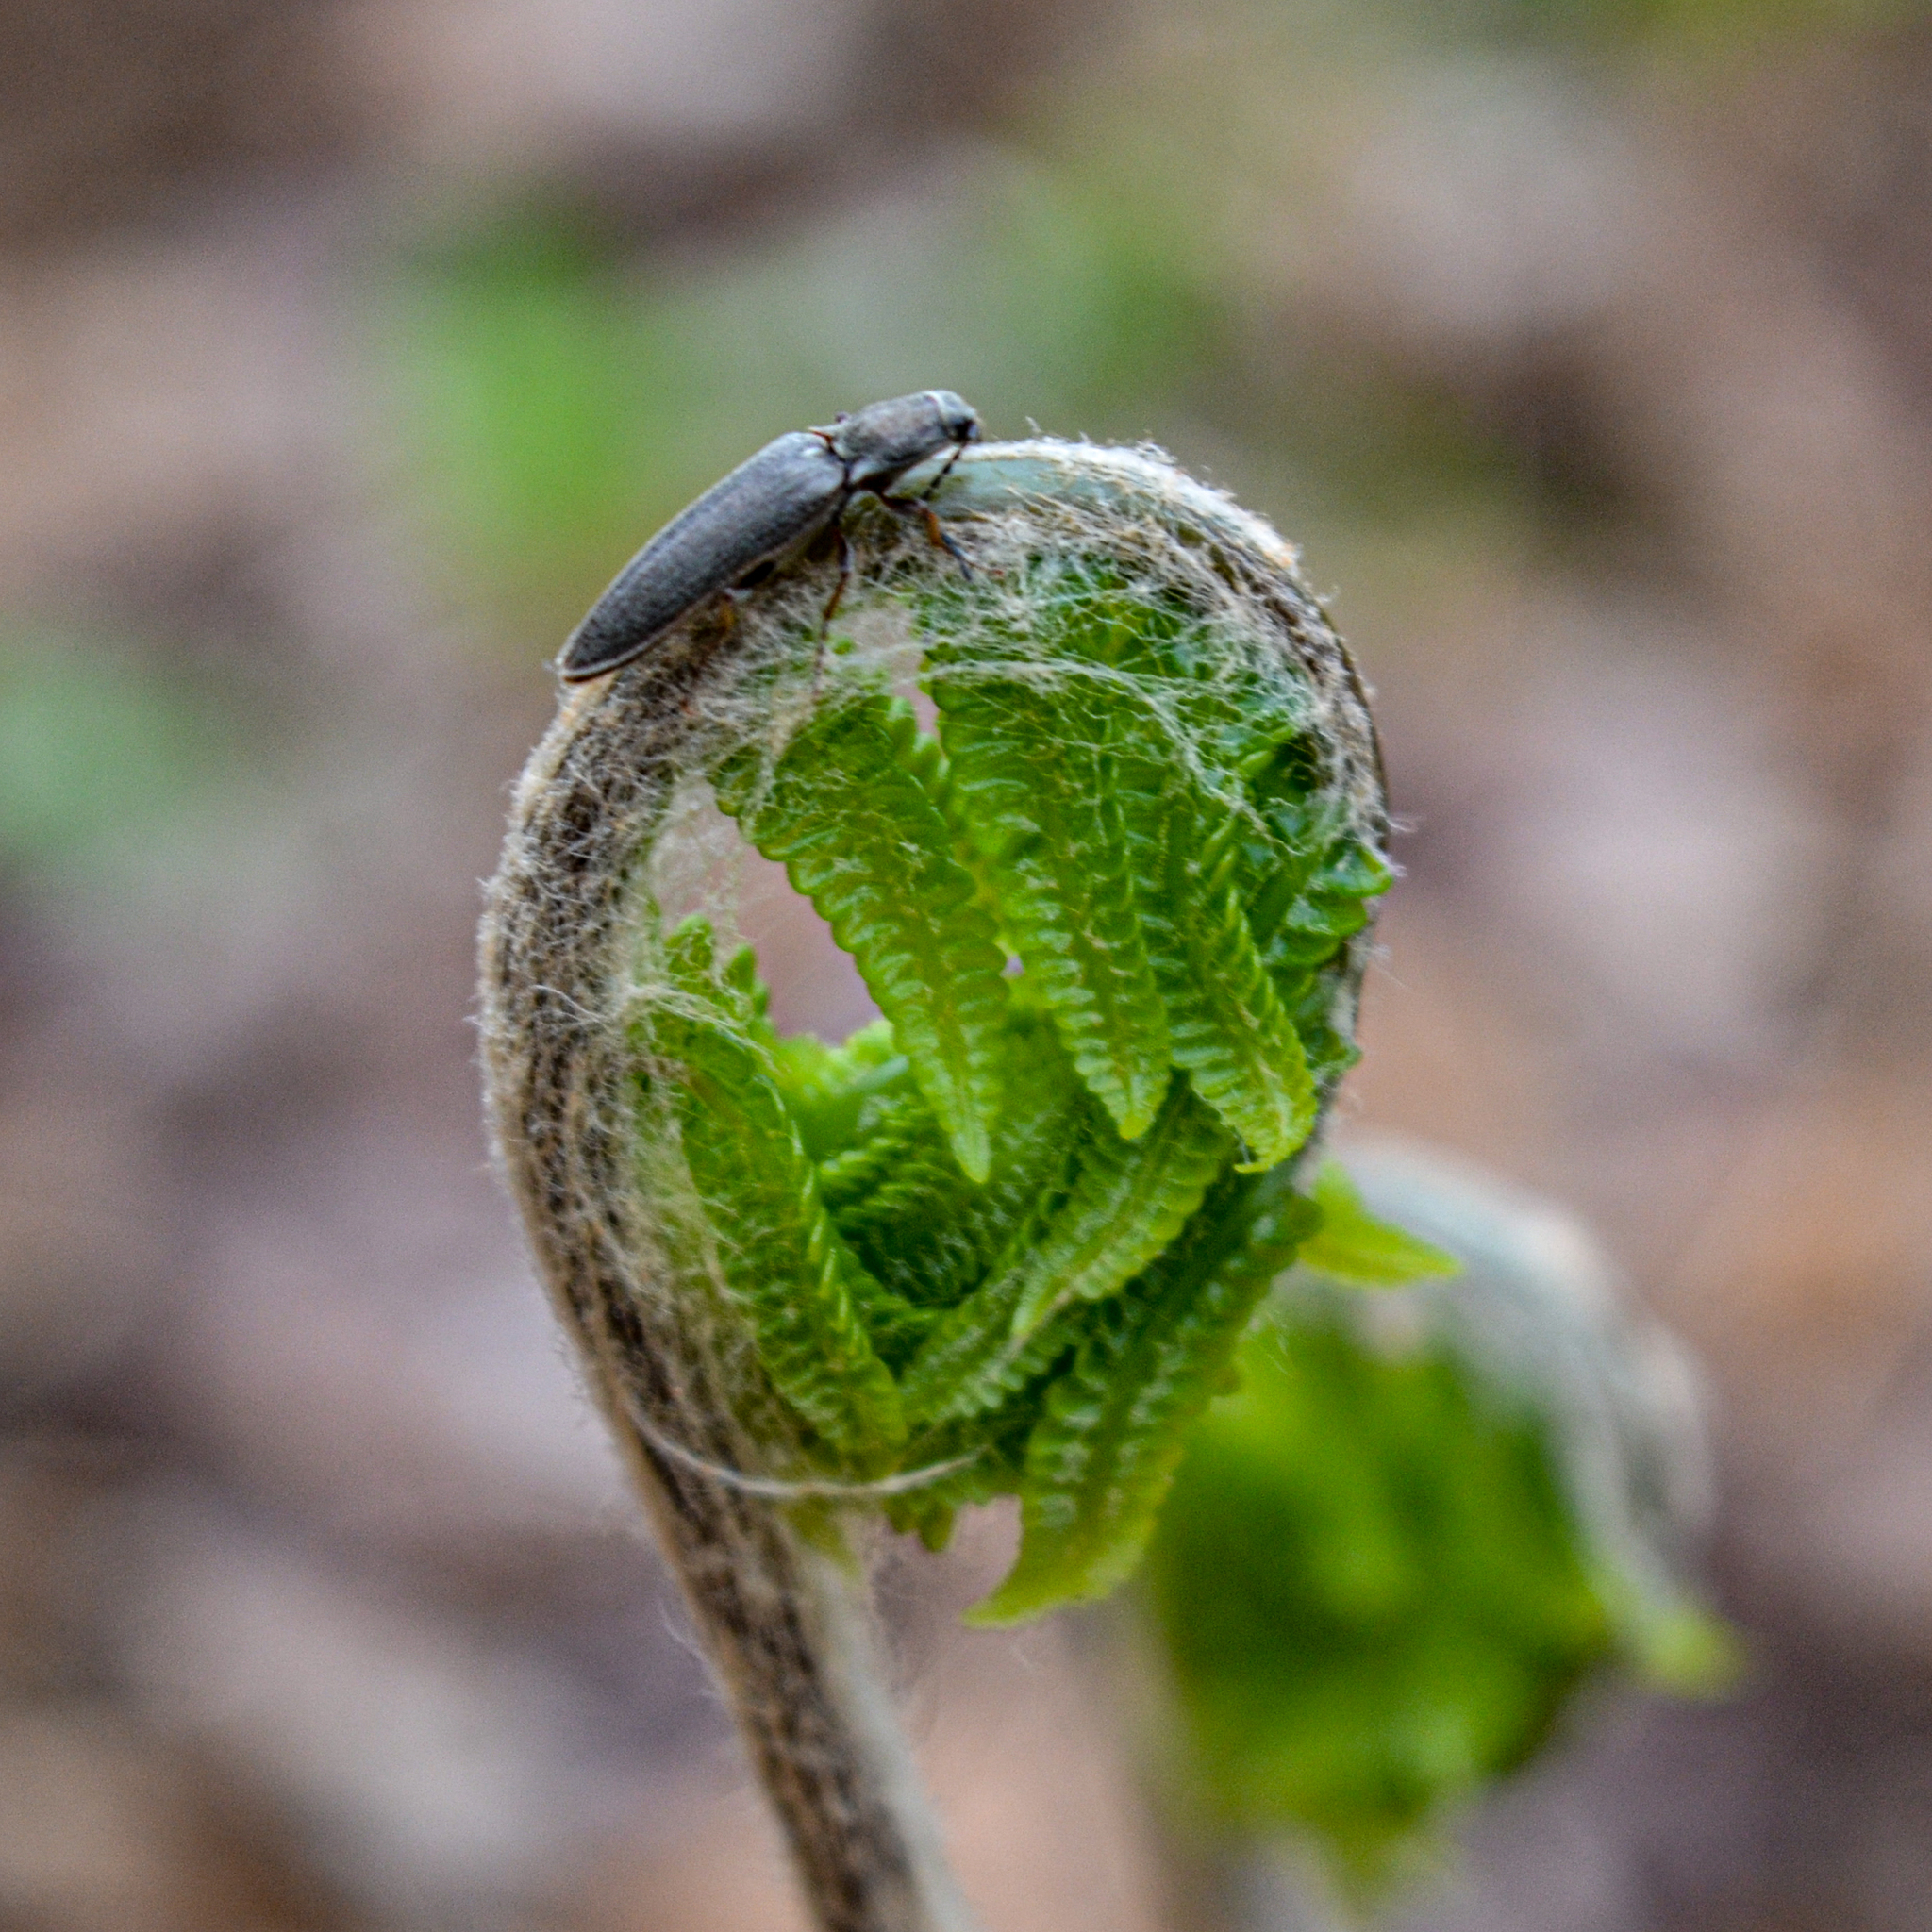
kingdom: Animalia
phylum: Arthropoda
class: Insecta
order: Coleoptera
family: Elateridae
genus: Sylvanelater
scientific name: Sylvanelater cylindriformis
